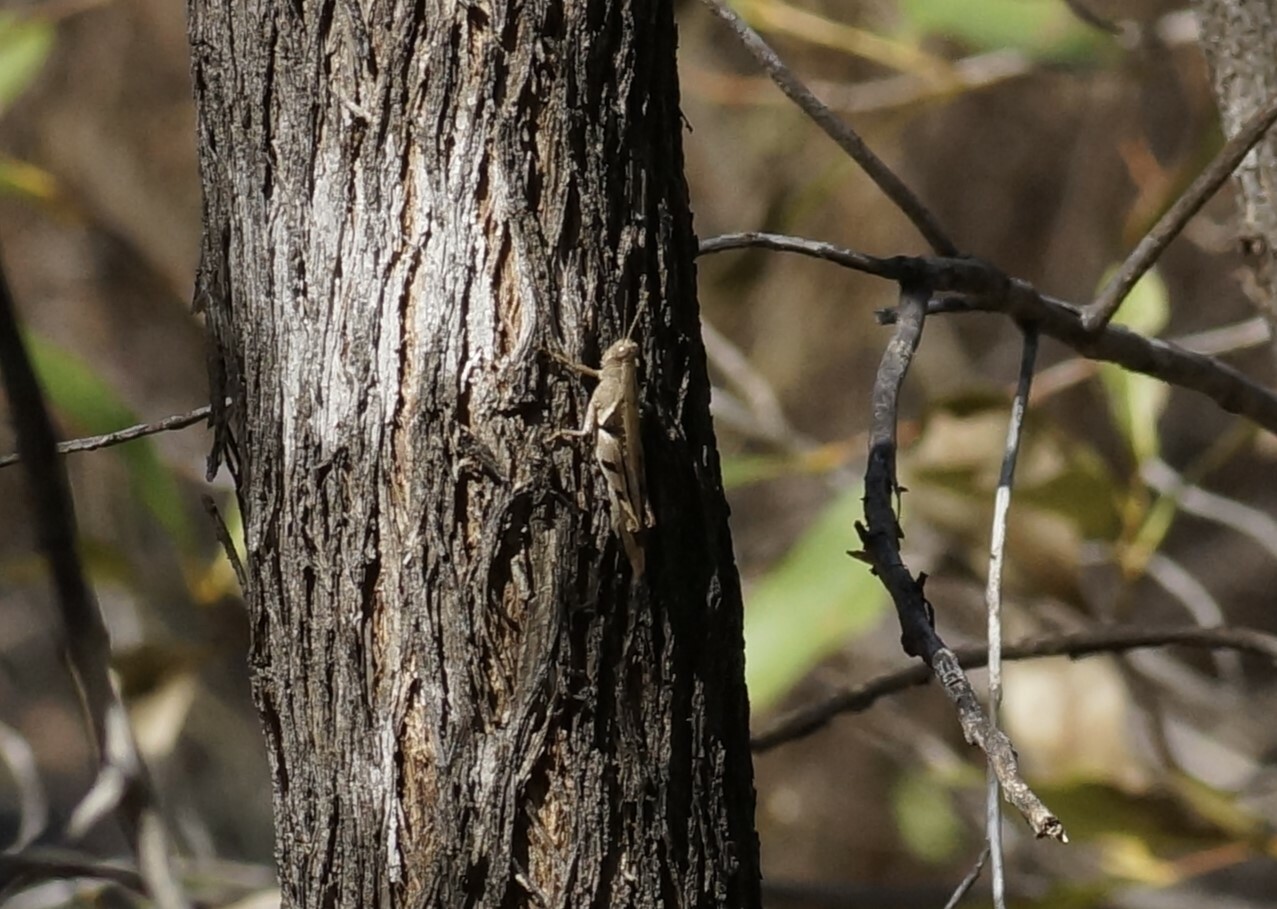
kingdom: Animalia
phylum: Arthropoda
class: Insecta
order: Orthoptera
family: Acrididae
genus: Stenocatantops
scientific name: Stenocatantops angustifrons
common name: Common tropical sharptail
